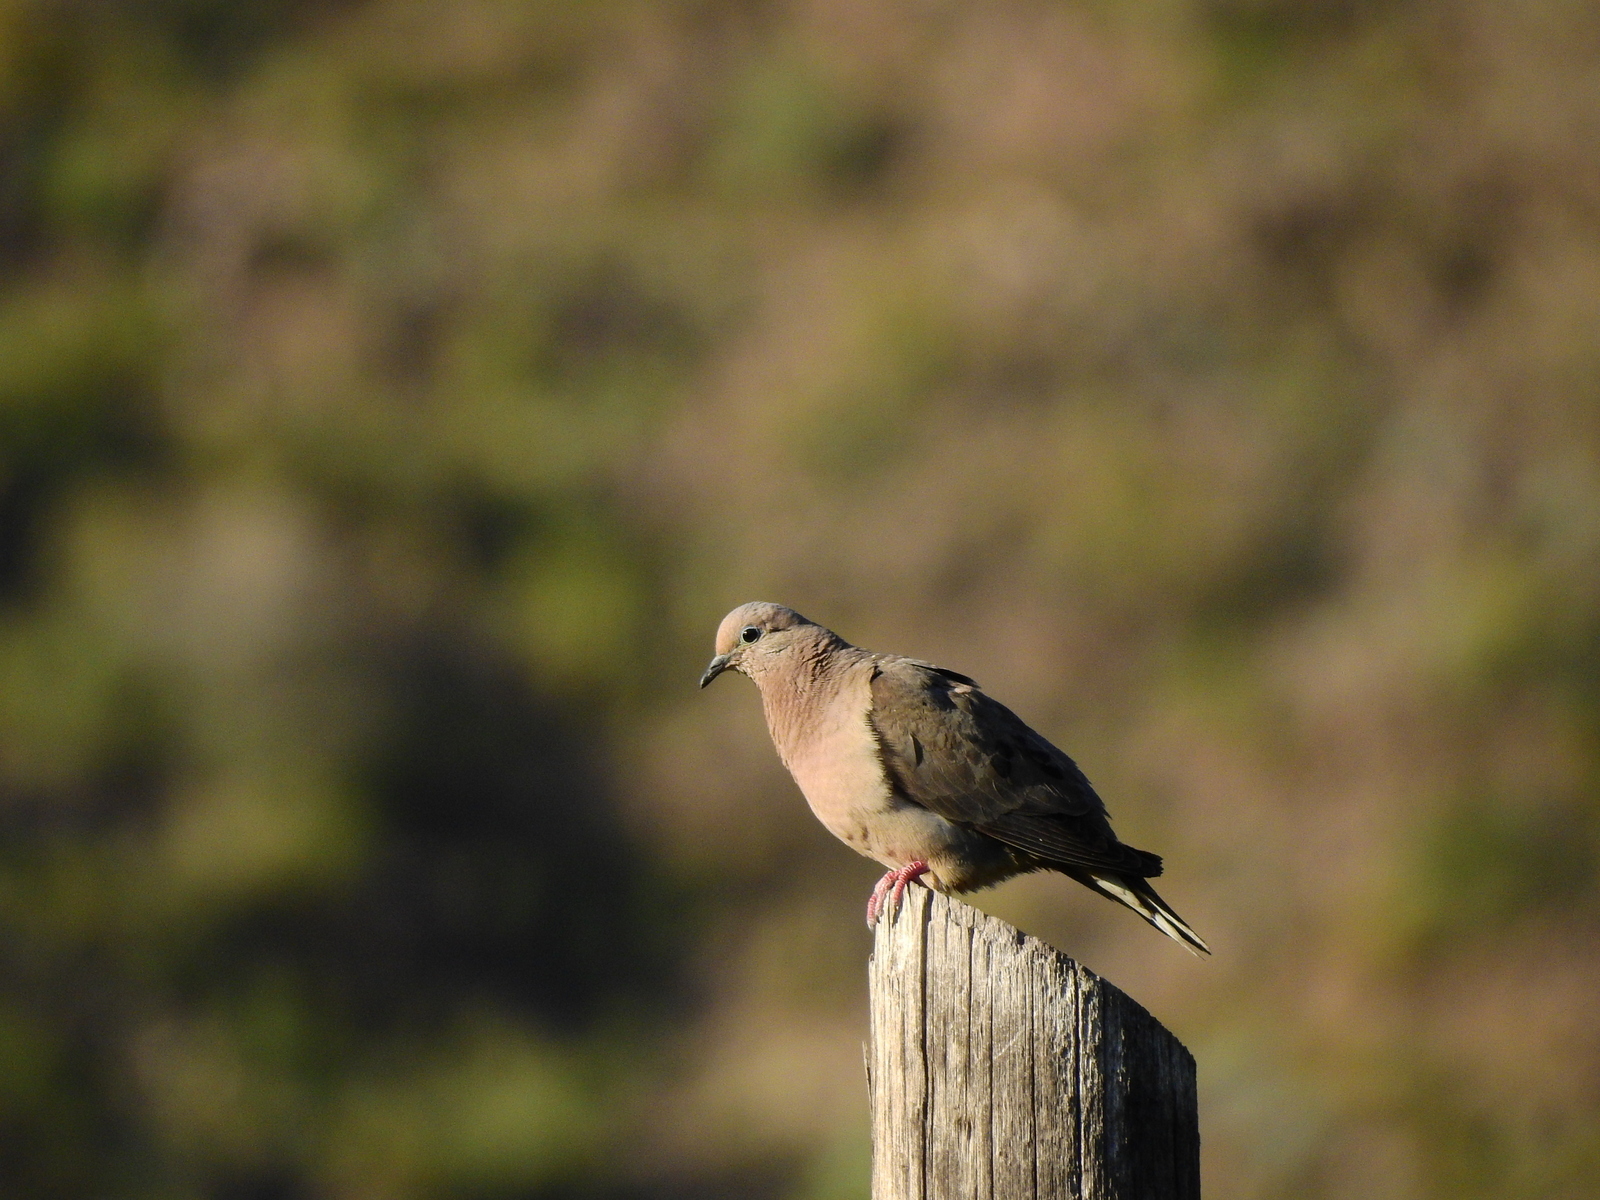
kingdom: Animalia
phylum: Chordata
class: Aves
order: Columbiformes
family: Columbidae
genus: Zenaida
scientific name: Zenaida auriculata
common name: Eared dove
